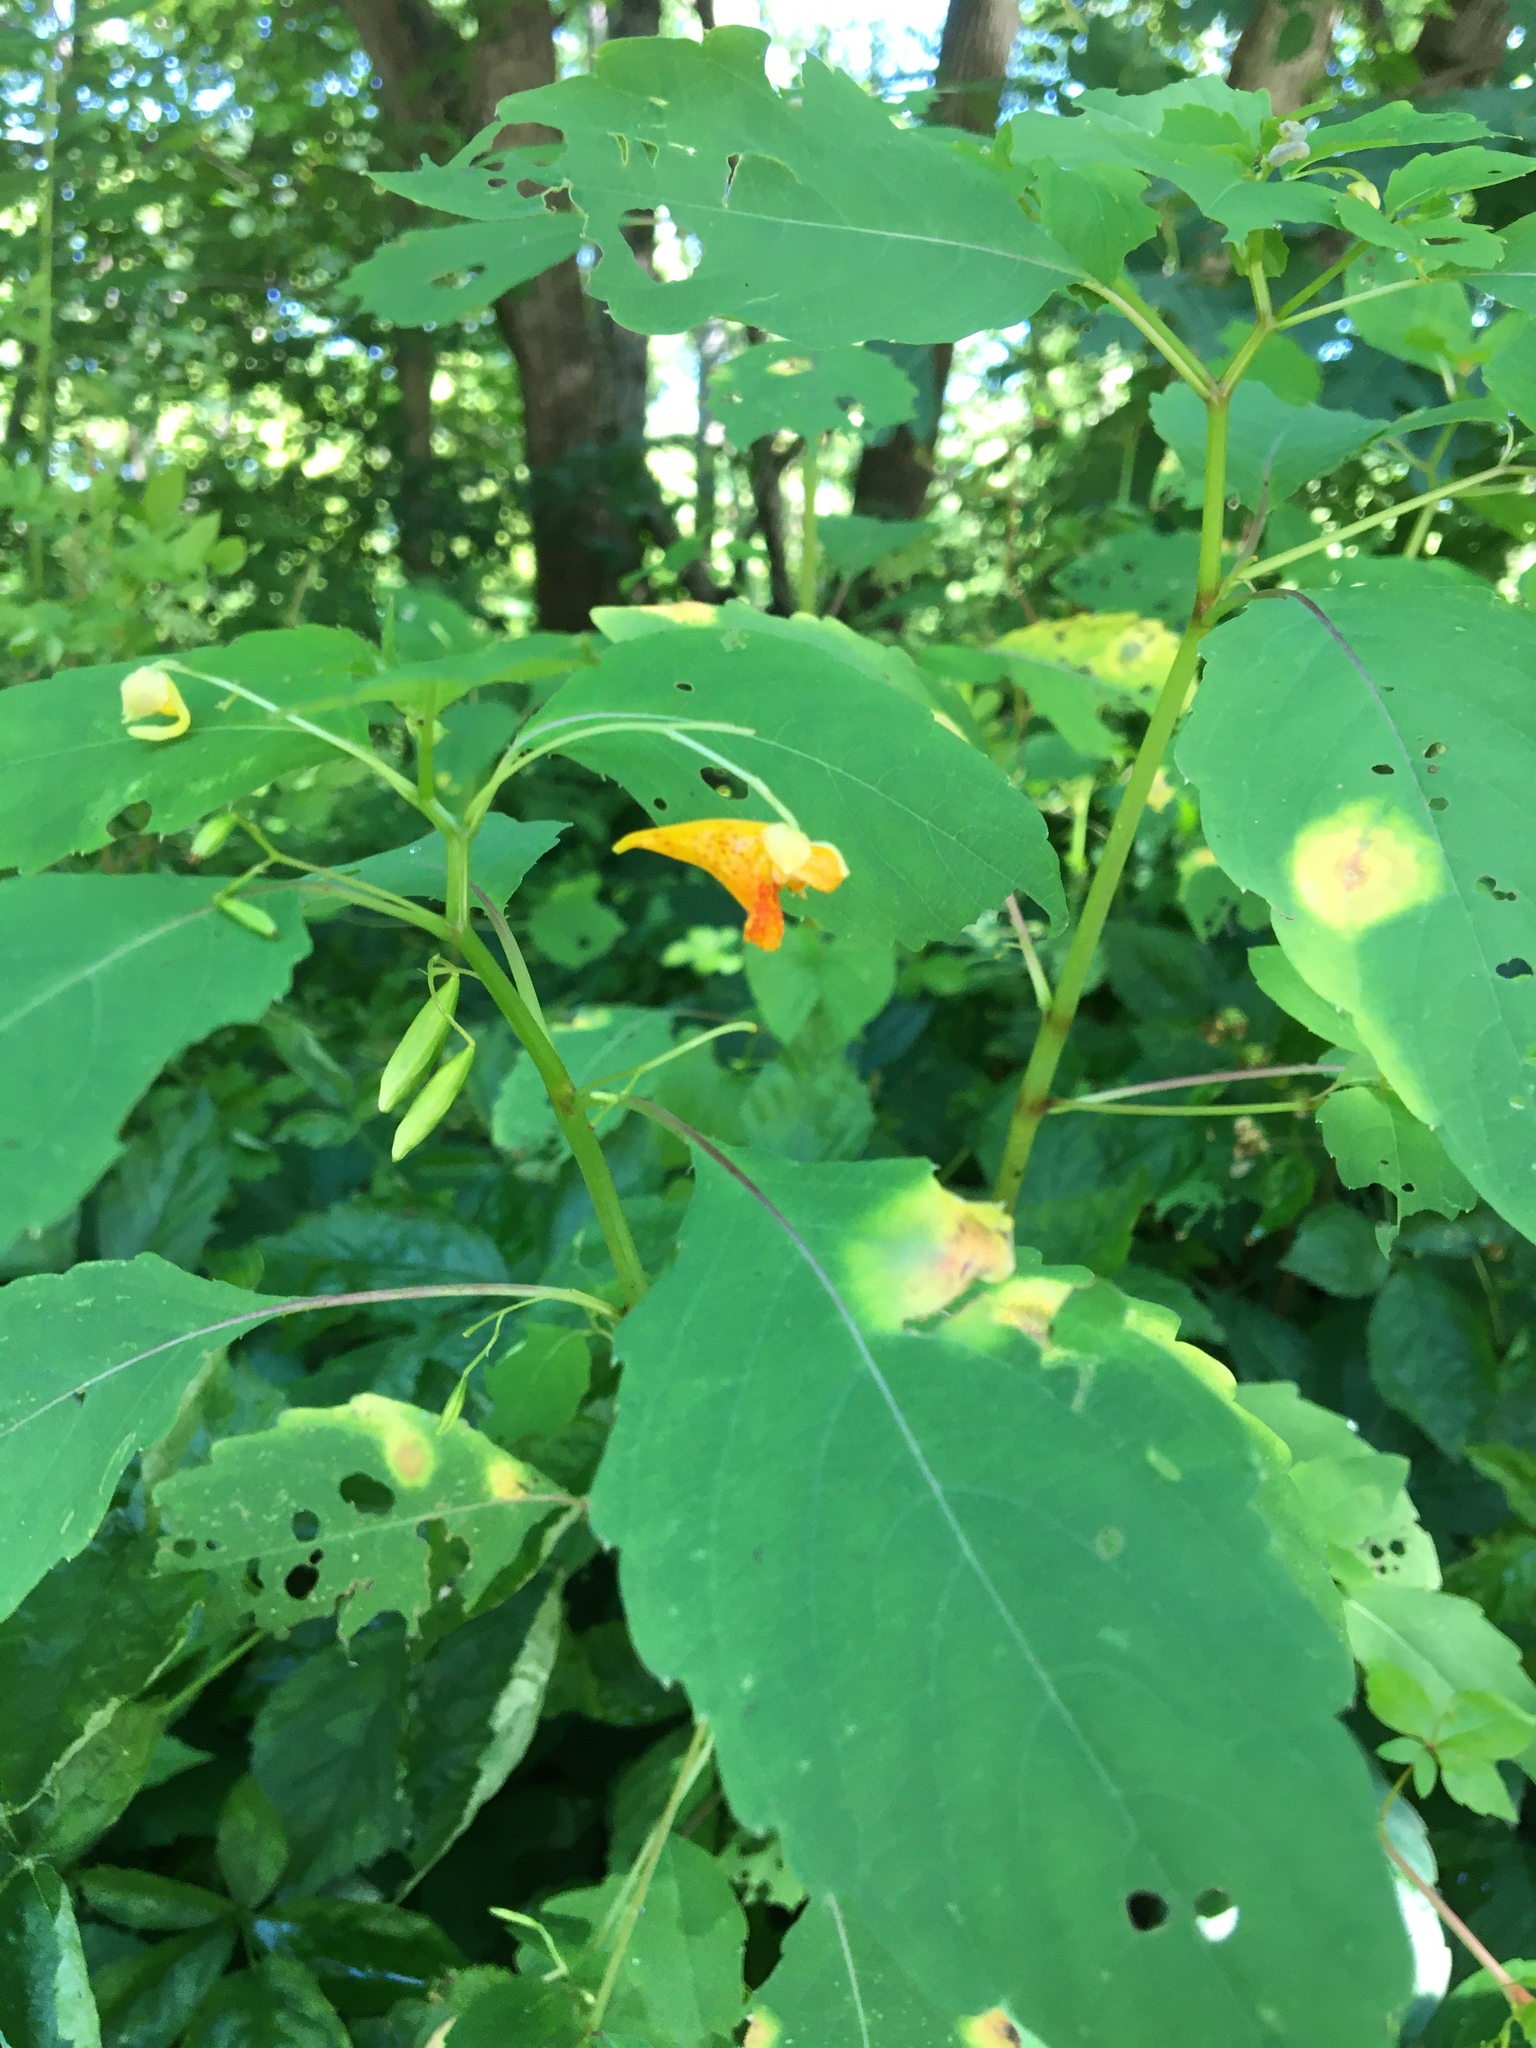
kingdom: Plantae
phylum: Tracheophyta
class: Magnoliopsida
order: Ericales
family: Balsaminaceae
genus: Impatiens
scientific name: Impatiens capensis
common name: Orange balsam
